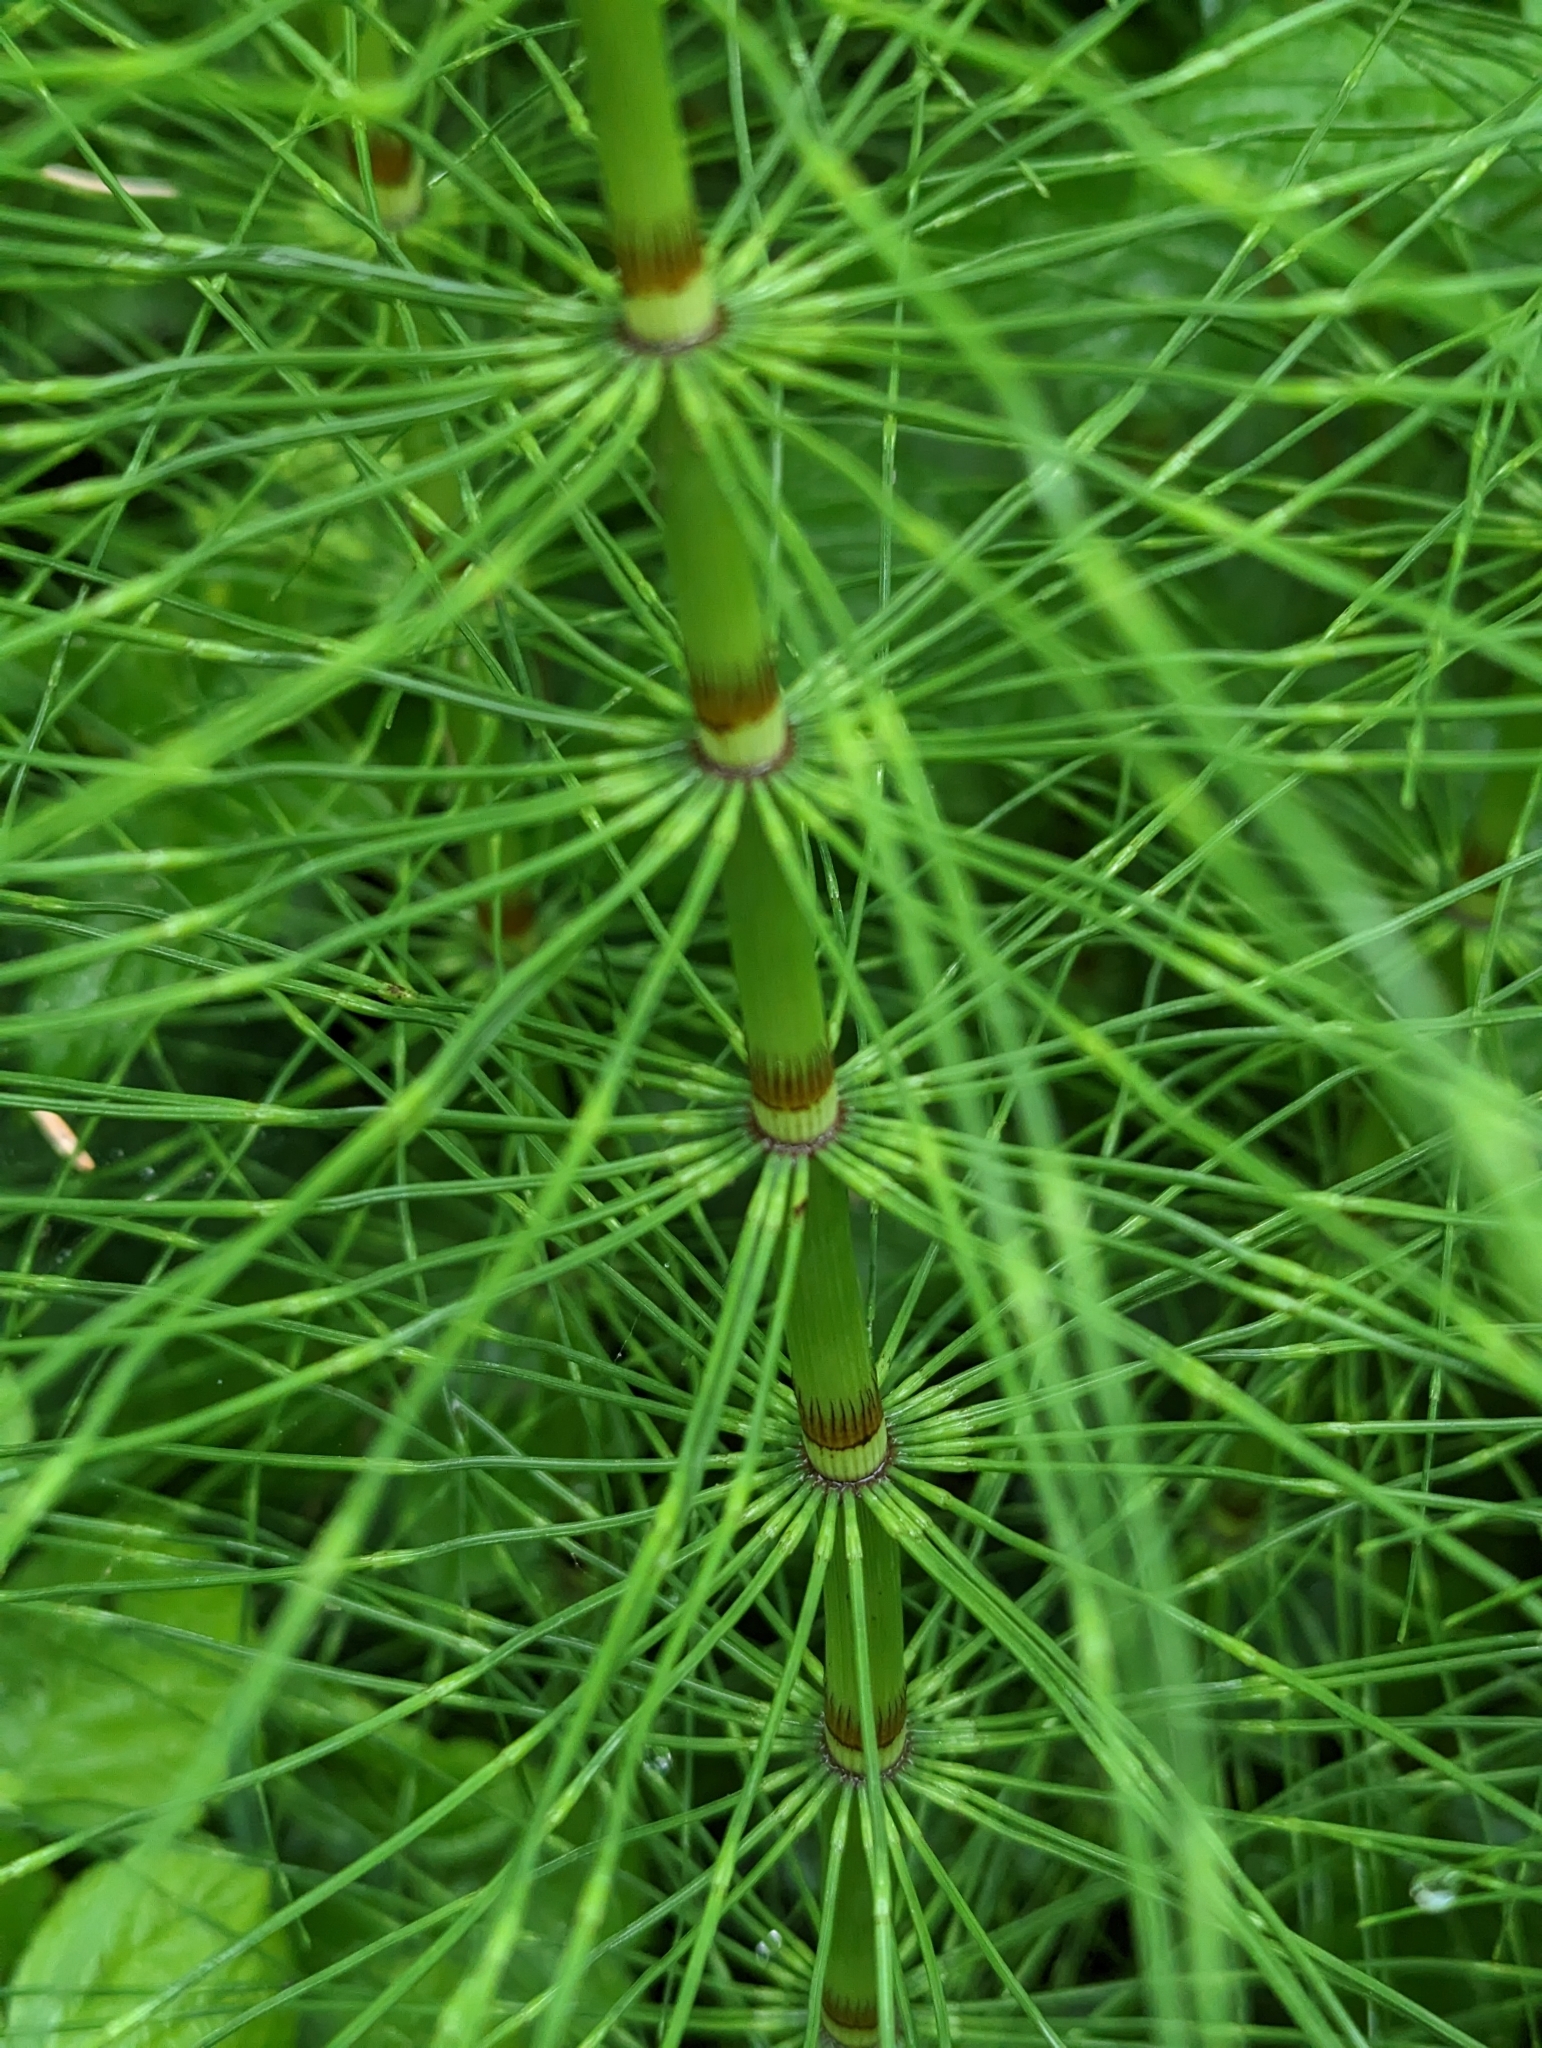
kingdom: Plantae
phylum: Tracheophyta
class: Polypodiopsida
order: Equisetales
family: Equisetaceae
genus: Equisetum
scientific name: Equisetum braunii
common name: Braun's horsetail
